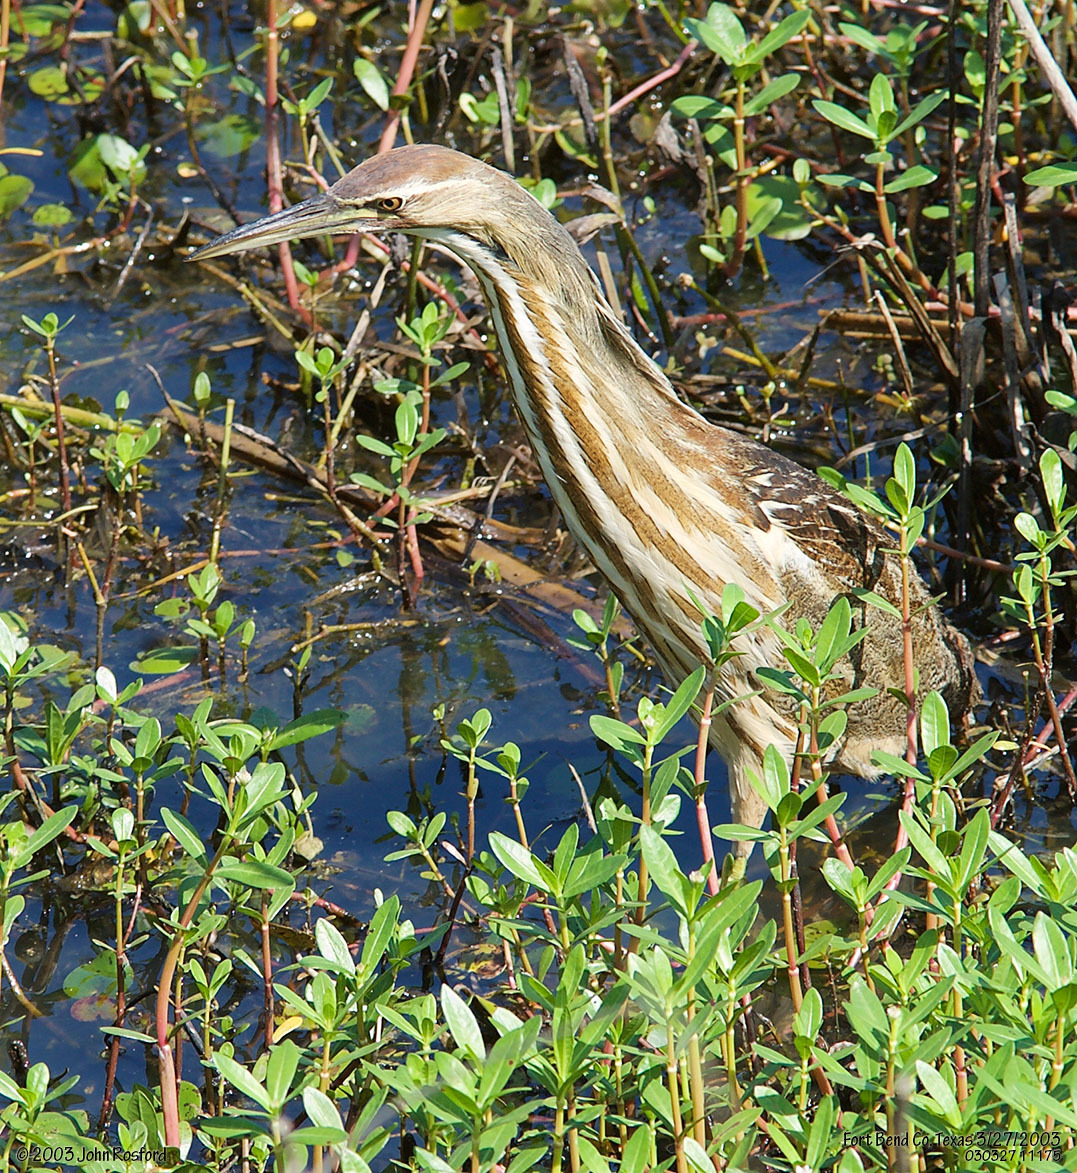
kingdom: Animalia
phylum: Chordata
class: Aves
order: Pelecaniformes
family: Ardeidae
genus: Botaurus
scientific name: Botaurus lentiginosus
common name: American bittern
